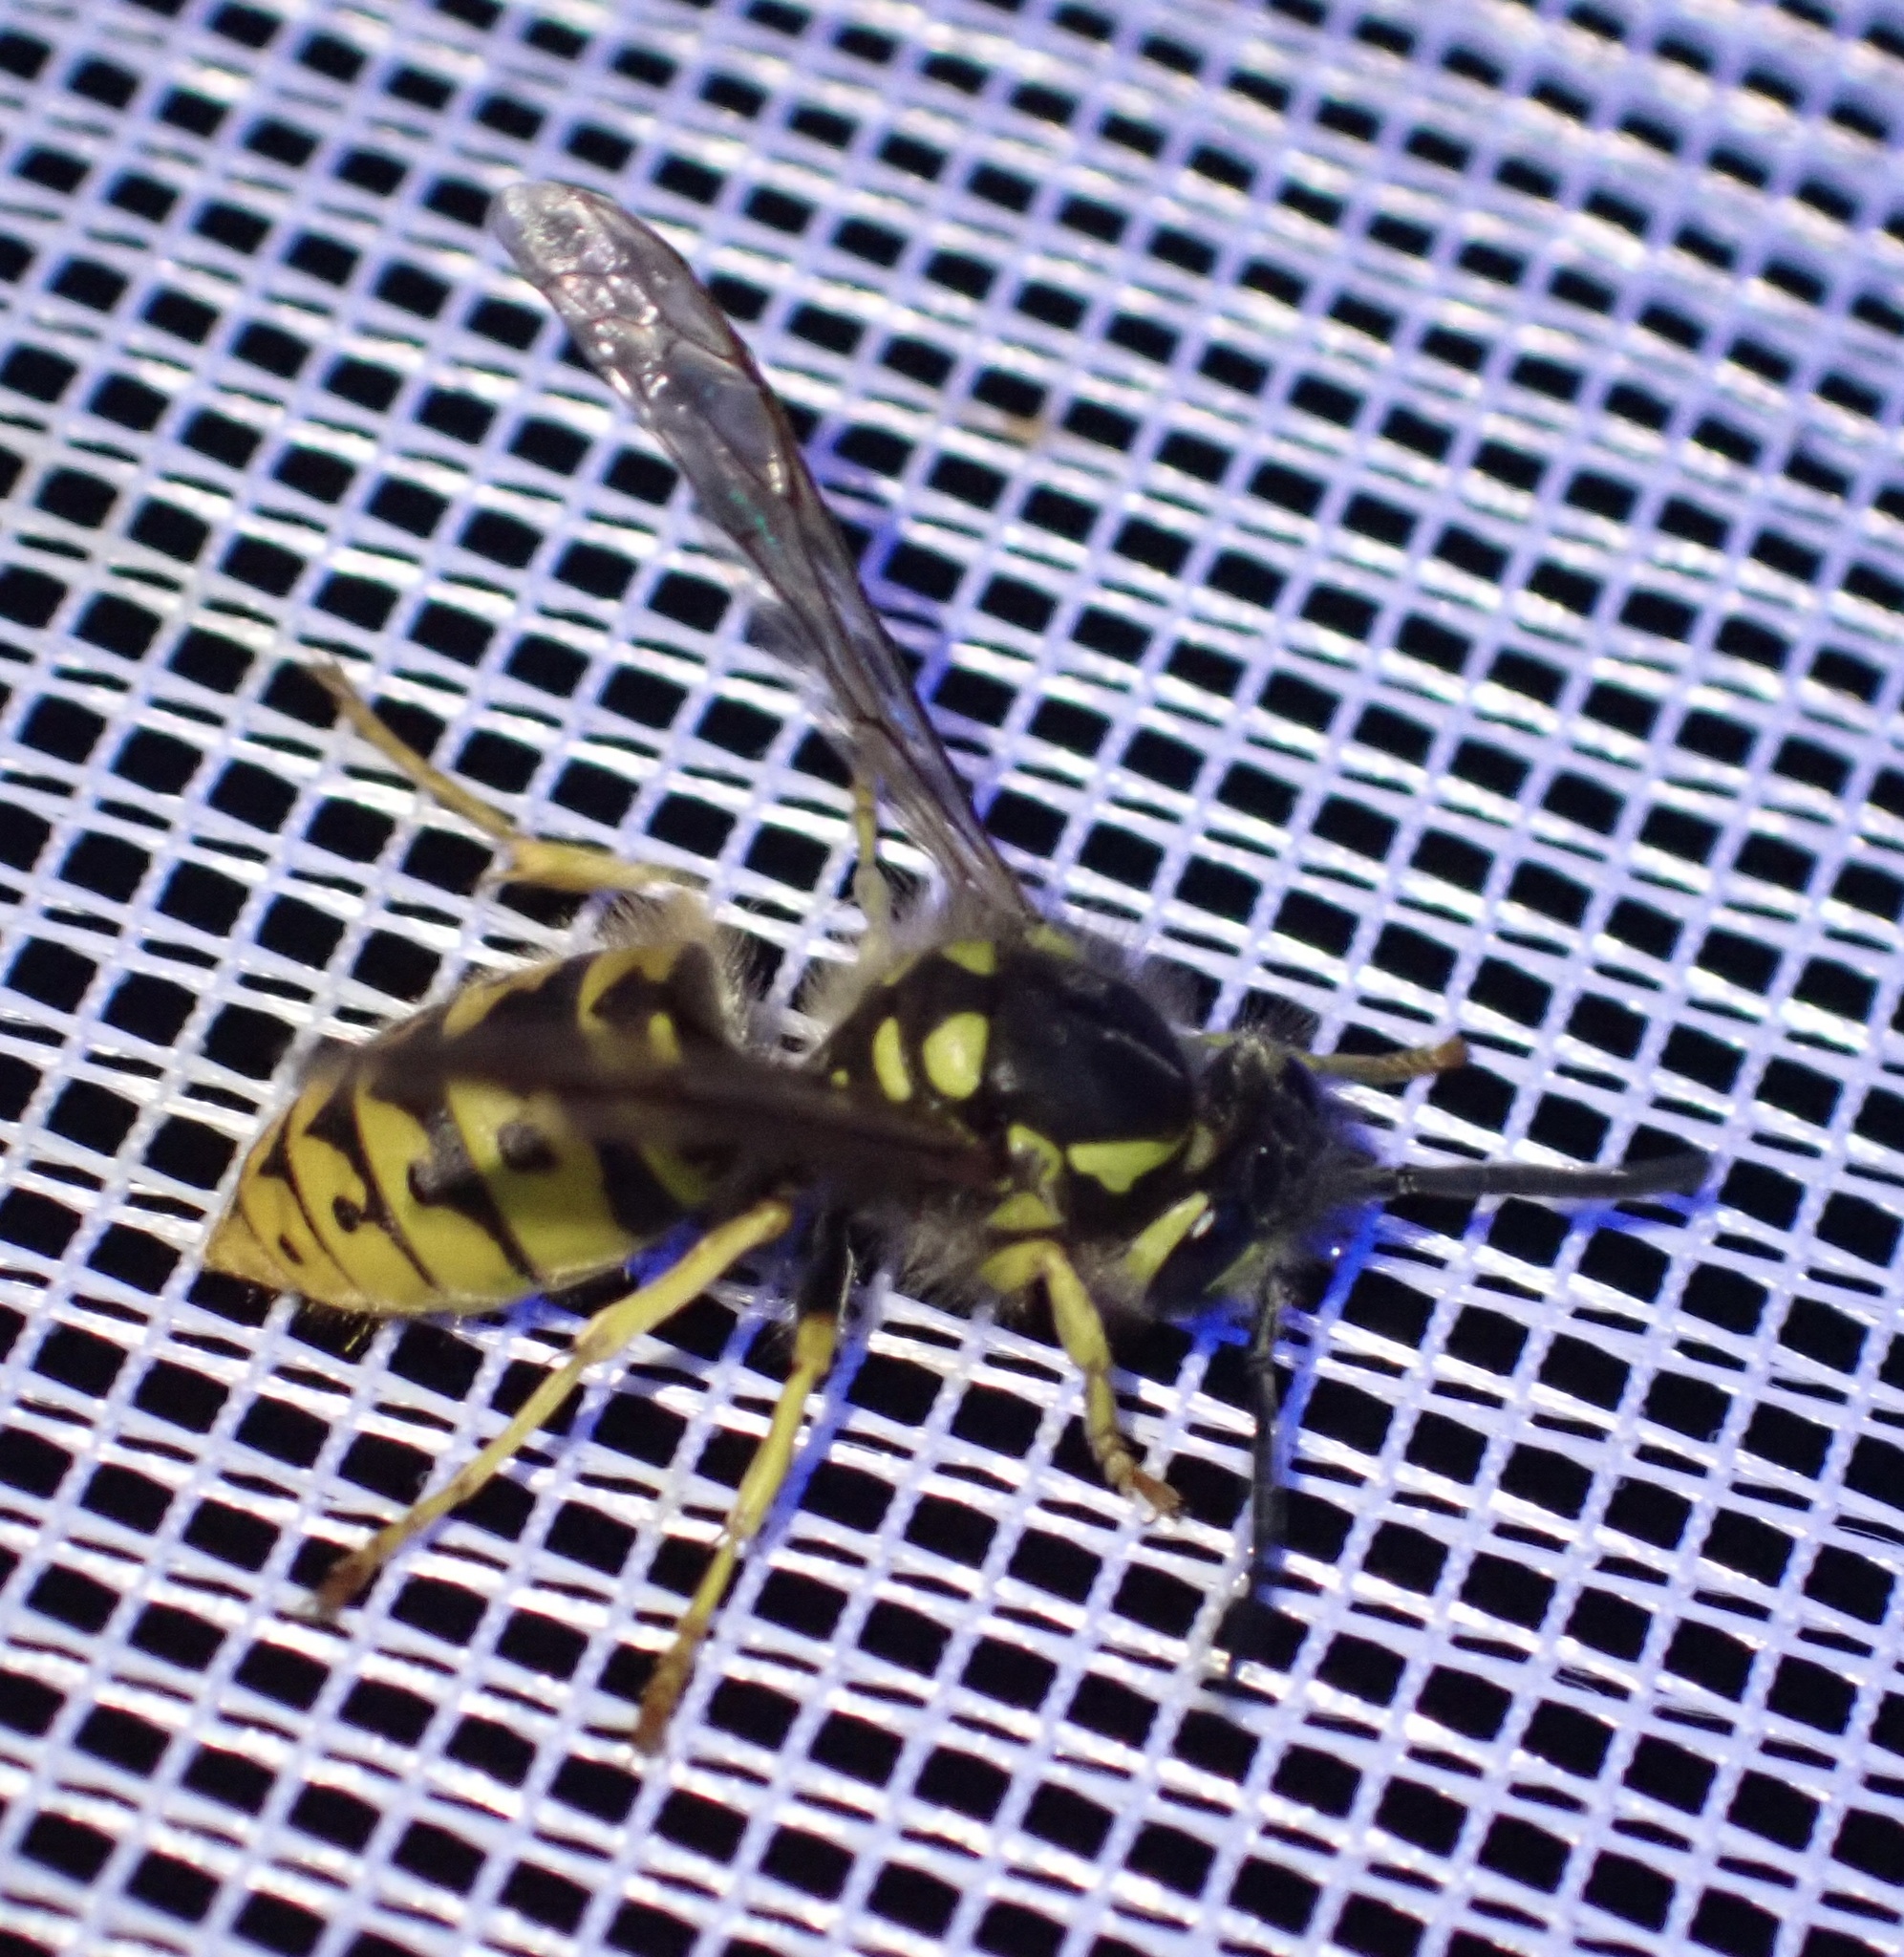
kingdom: Animalia
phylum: Arthropoda
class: Insecta
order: Hymenoptera
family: Vespidae
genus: Vespula
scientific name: Vespula germanica
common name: German wasp
